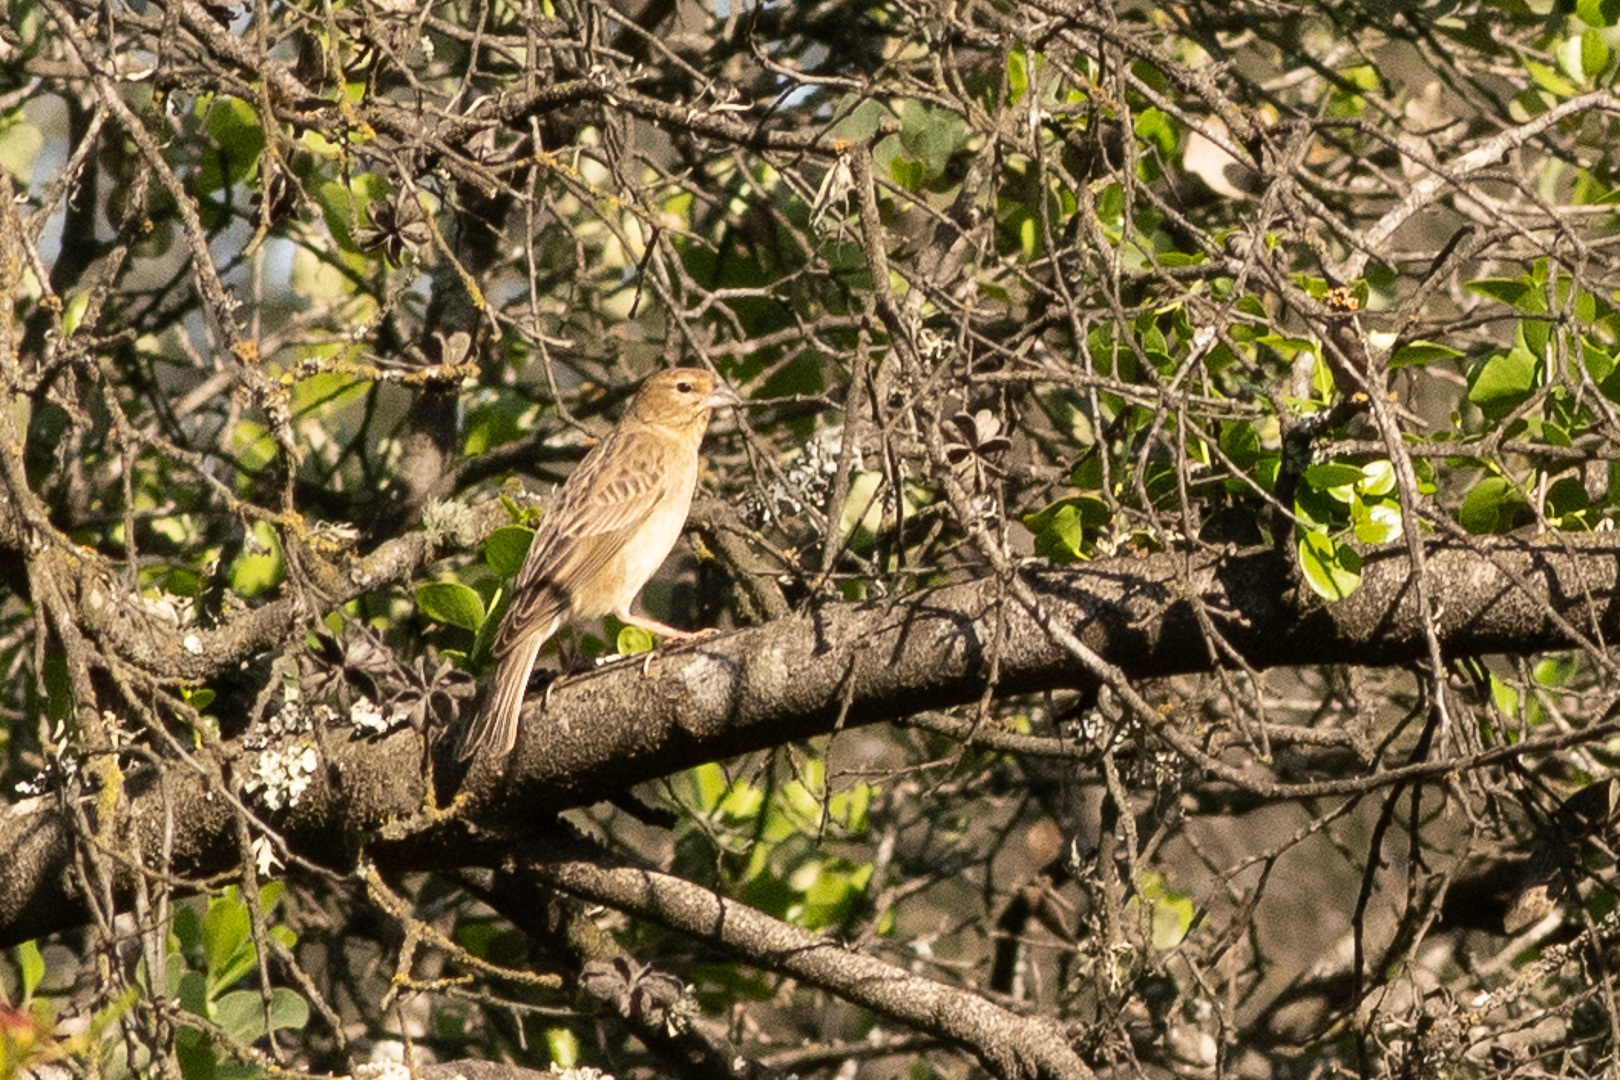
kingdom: Animalia
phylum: Chordata
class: Aves
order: Passeriformes
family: Thraupidae
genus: Sicalis
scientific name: Sicalis luteola
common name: Grassland yellow-finch
